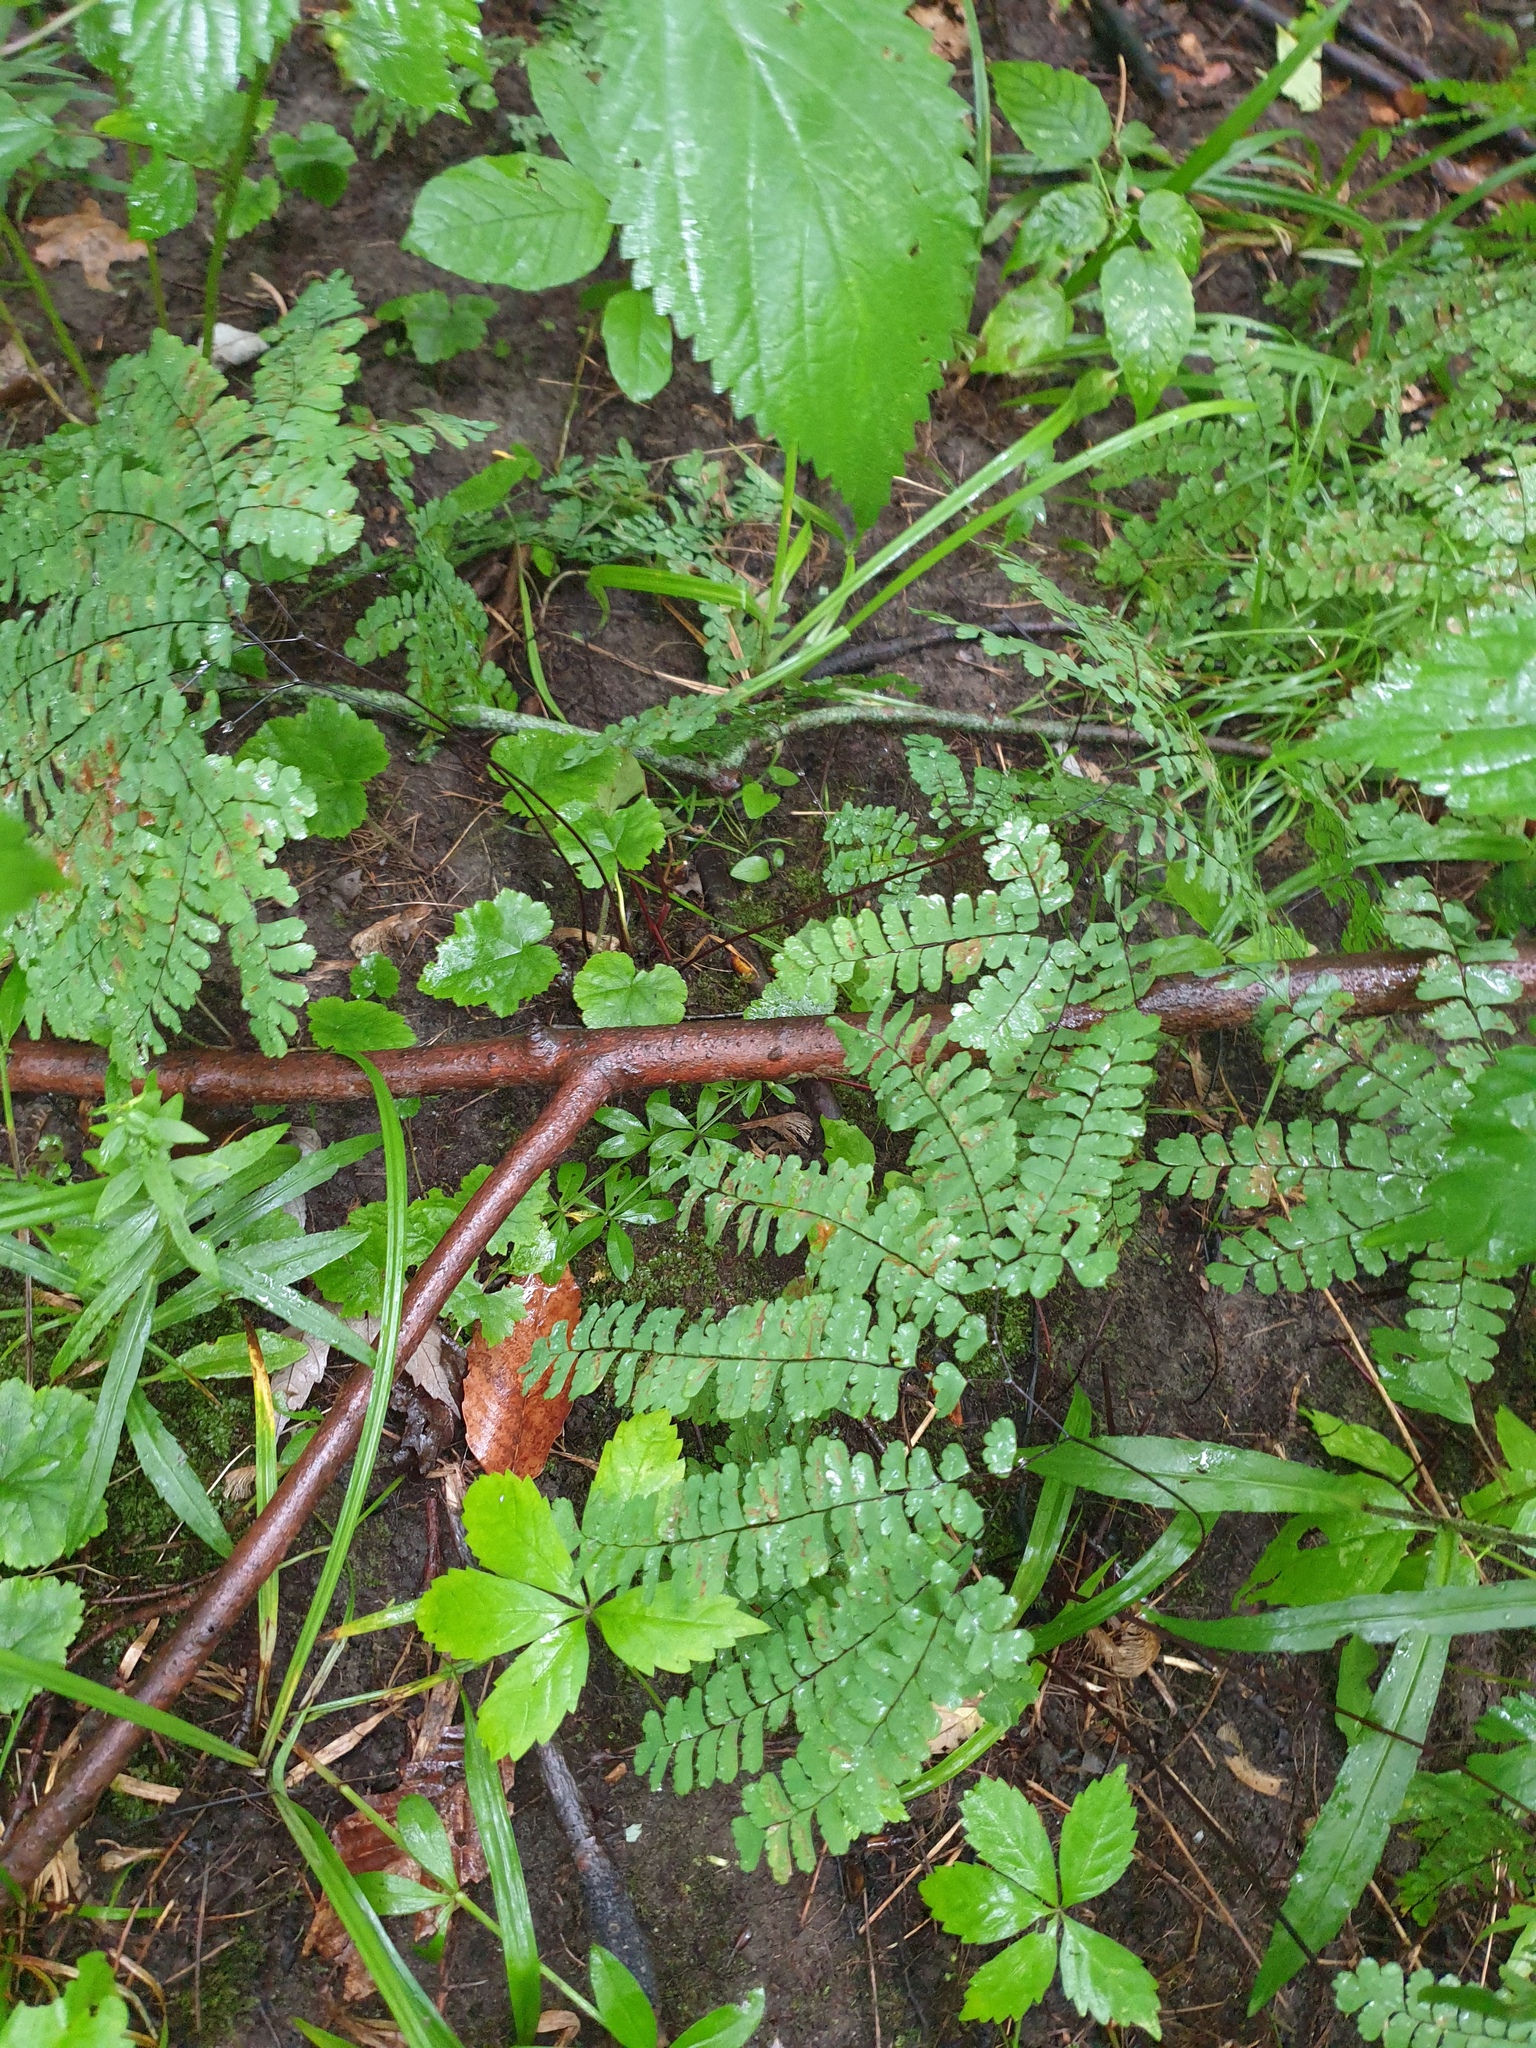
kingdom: Plantae
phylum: Tracheophyta
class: Polypodiopsida
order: Polypodiales
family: Pteridaceae
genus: Adiantum
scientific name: Adiantum pedatum
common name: Five-finger fern
